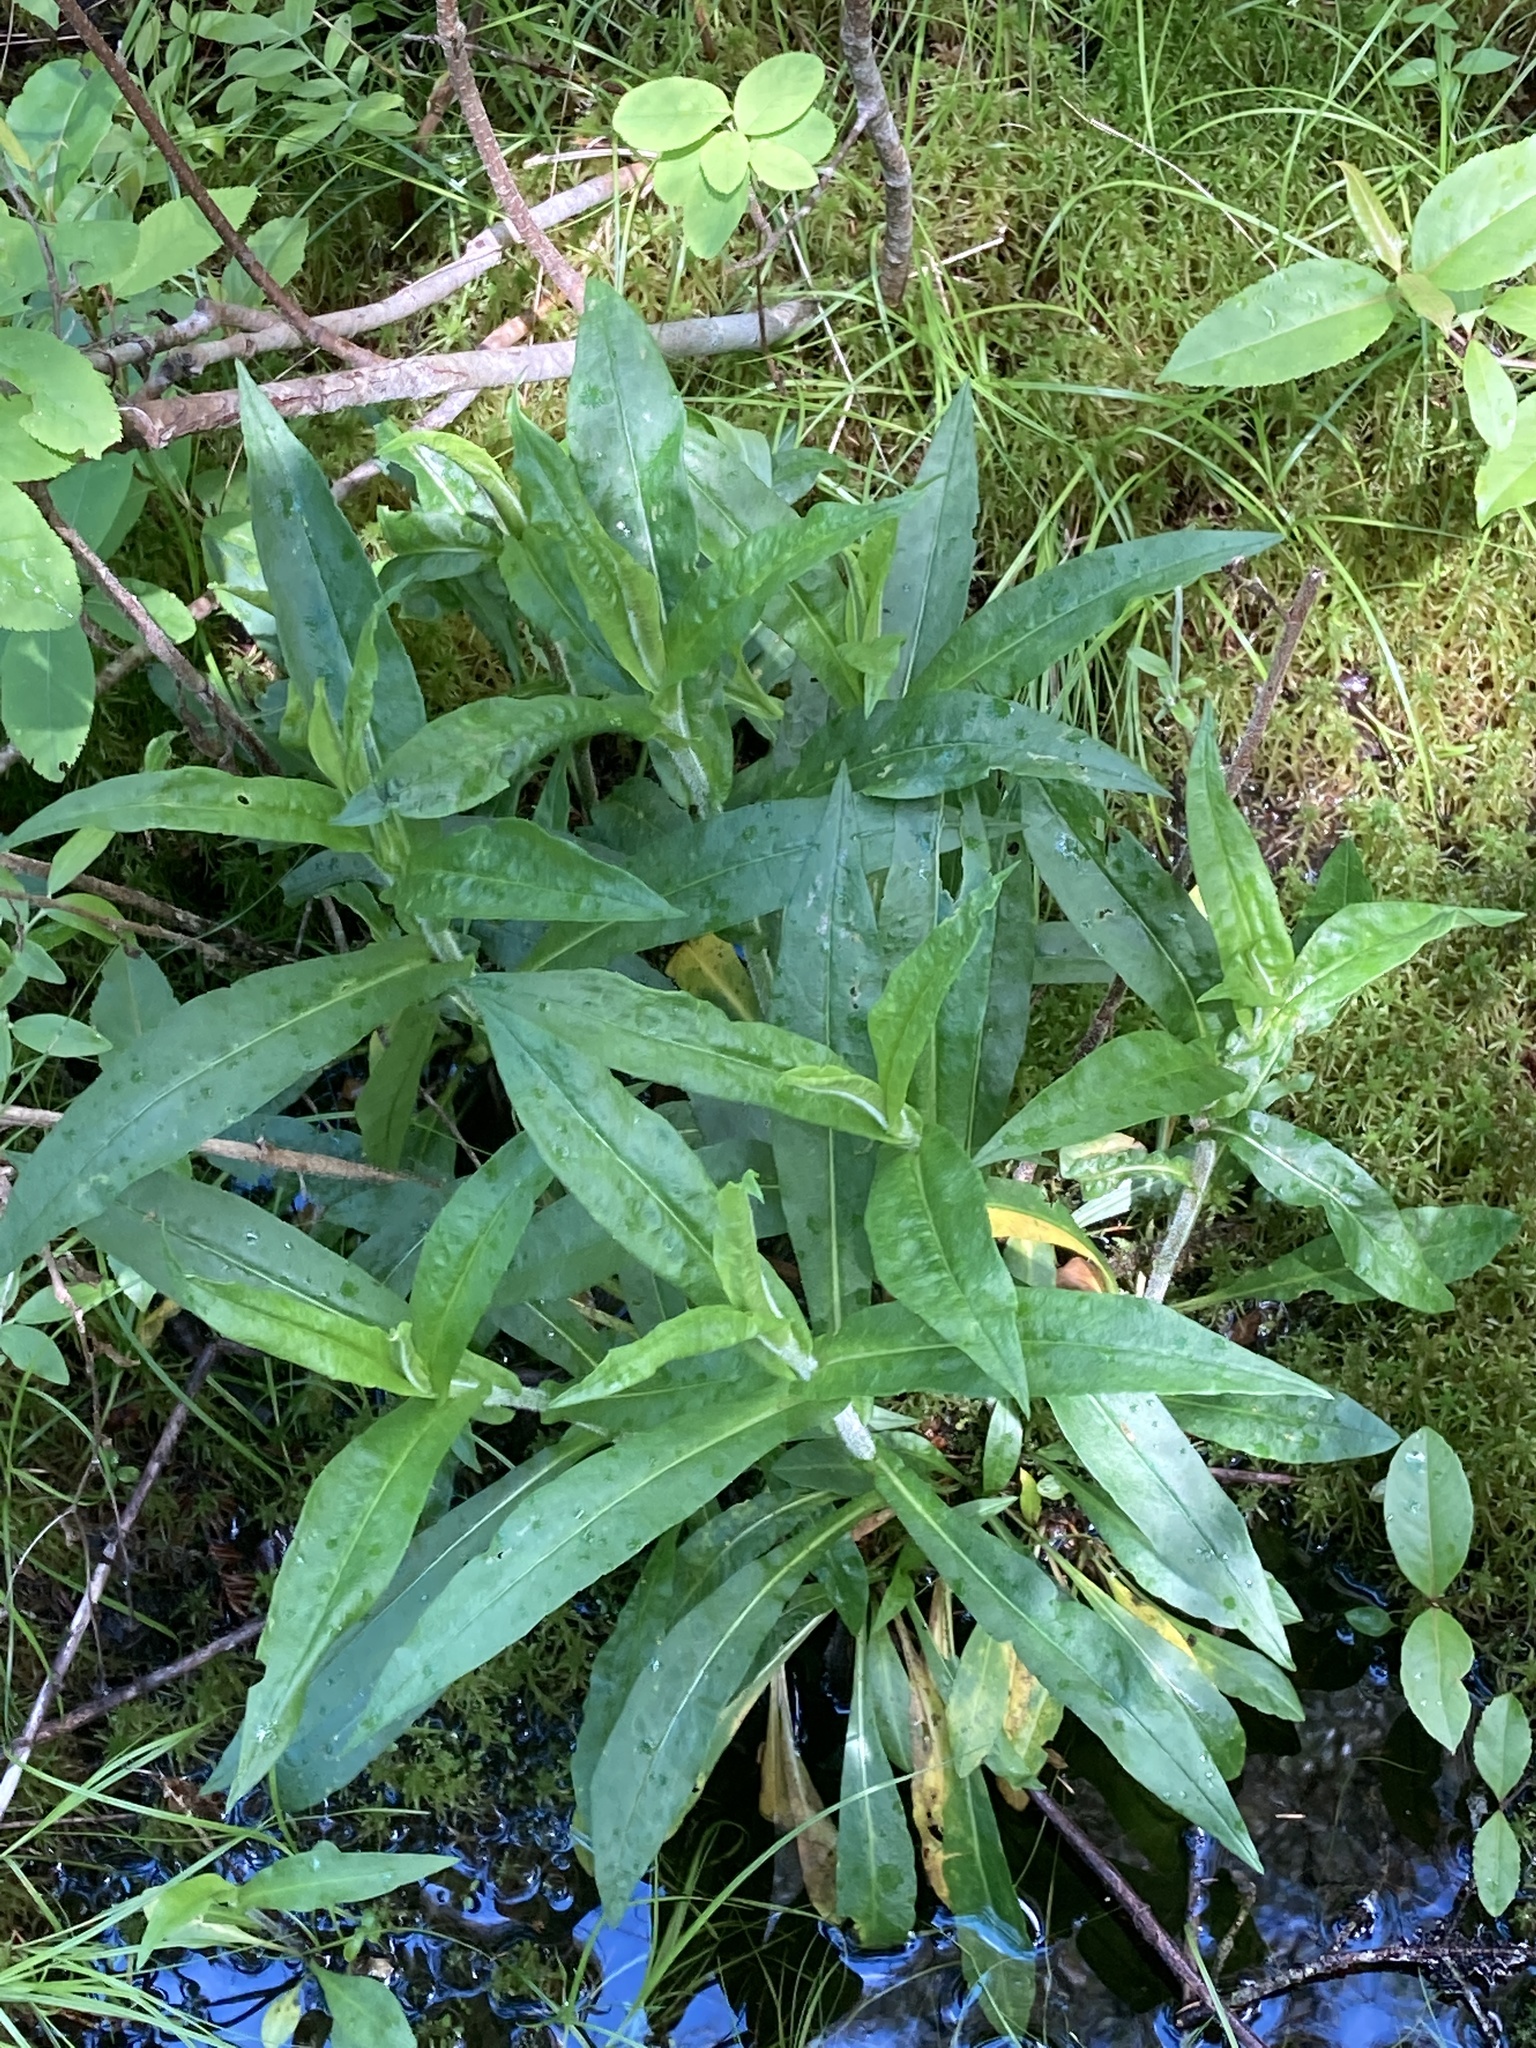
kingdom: Plantae
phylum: Tracheophyta
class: Magnoliopsida
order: Asterales
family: Asteraceae
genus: Symphyotrichum
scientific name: Symphyotrichum puniceum
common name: Bog aster
